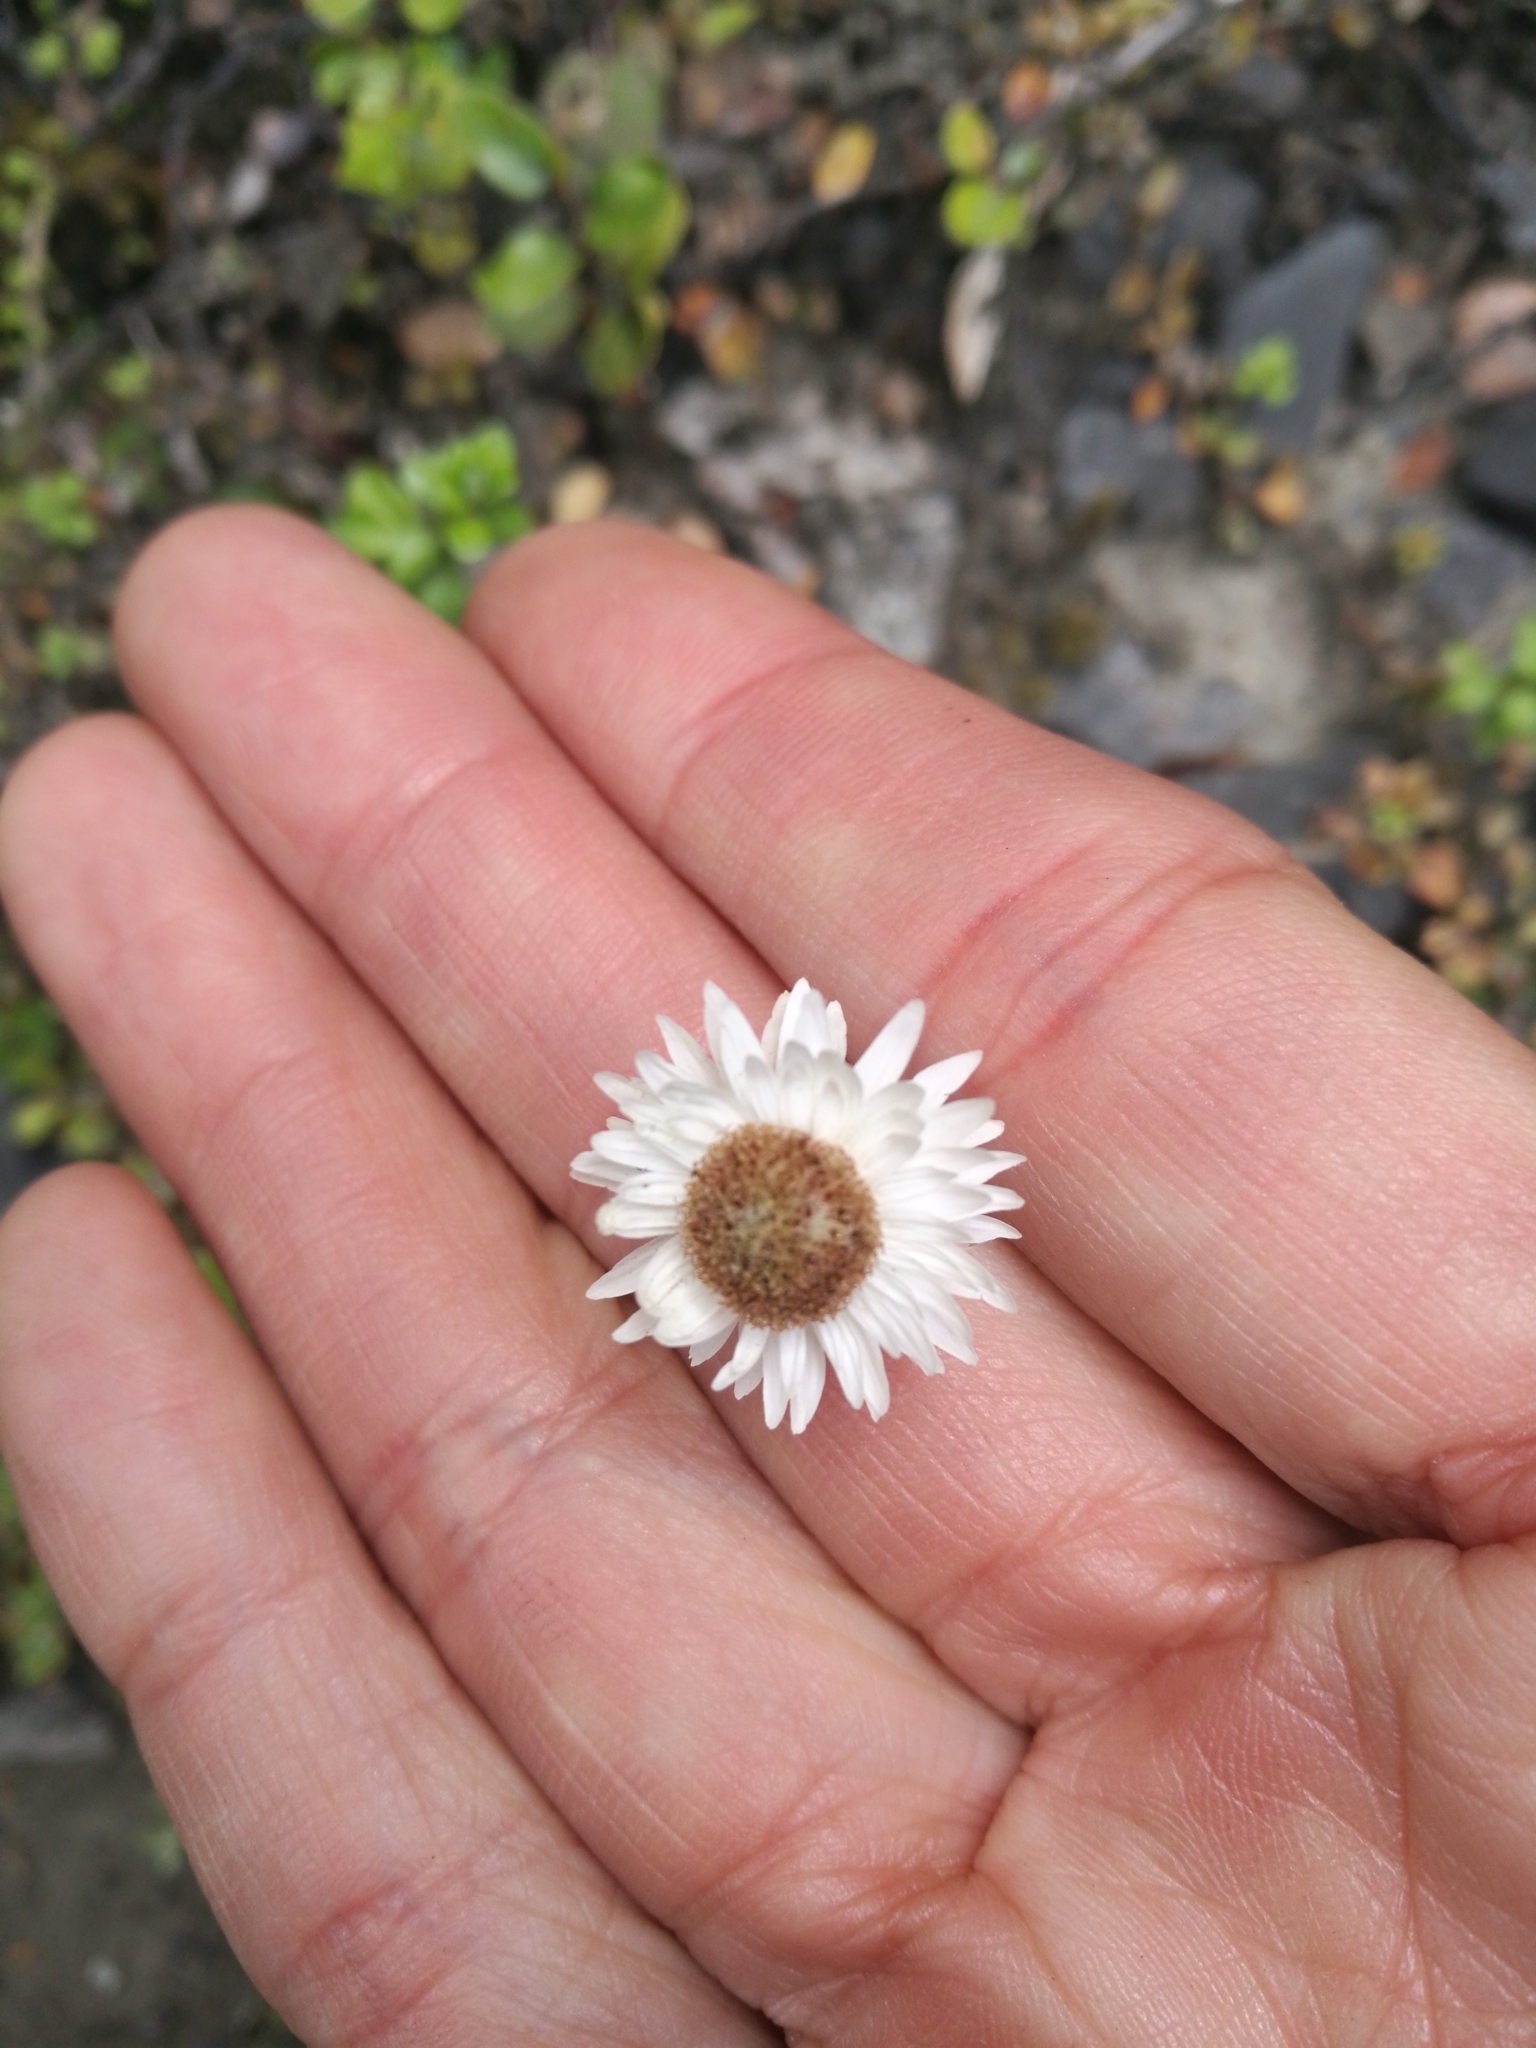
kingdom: Plantae
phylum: Tracheophyta
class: Magnoliopsida
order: Asterales
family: Asteraceae
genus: Anaphalioides
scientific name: Anaphalioides bellidioides
